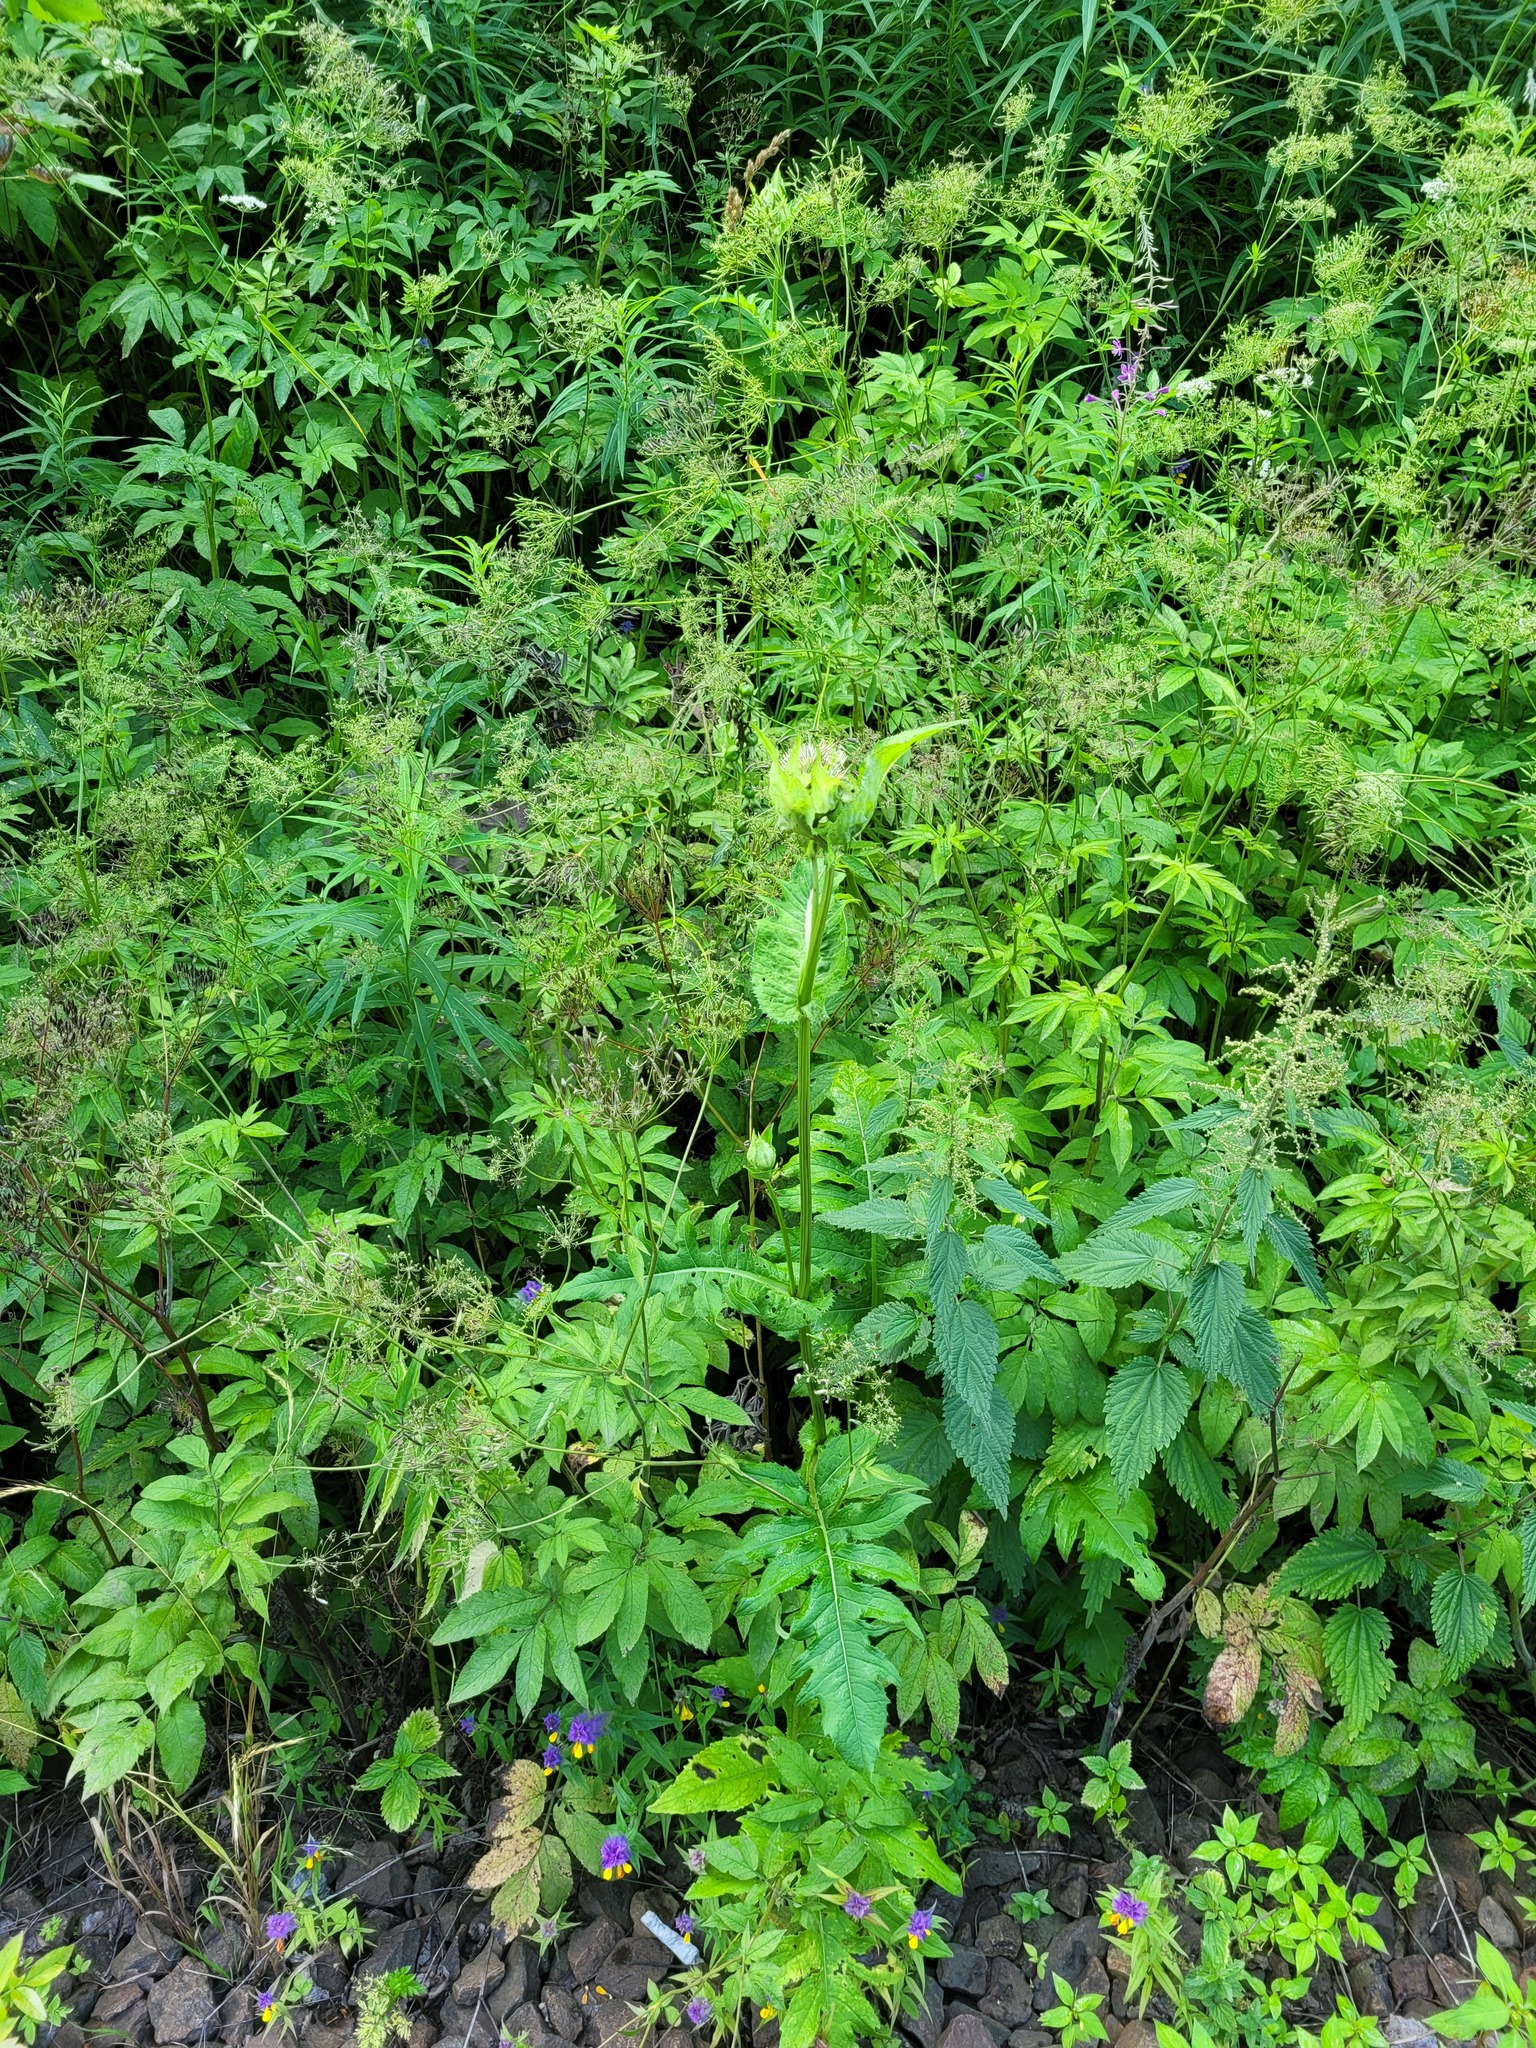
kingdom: Plantae
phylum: Tracheophyta
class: Magnoliopsida
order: Asterales
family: Asteraceae
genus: Cirsium
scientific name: Cirsium oleraceum
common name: Cabbage thistle
